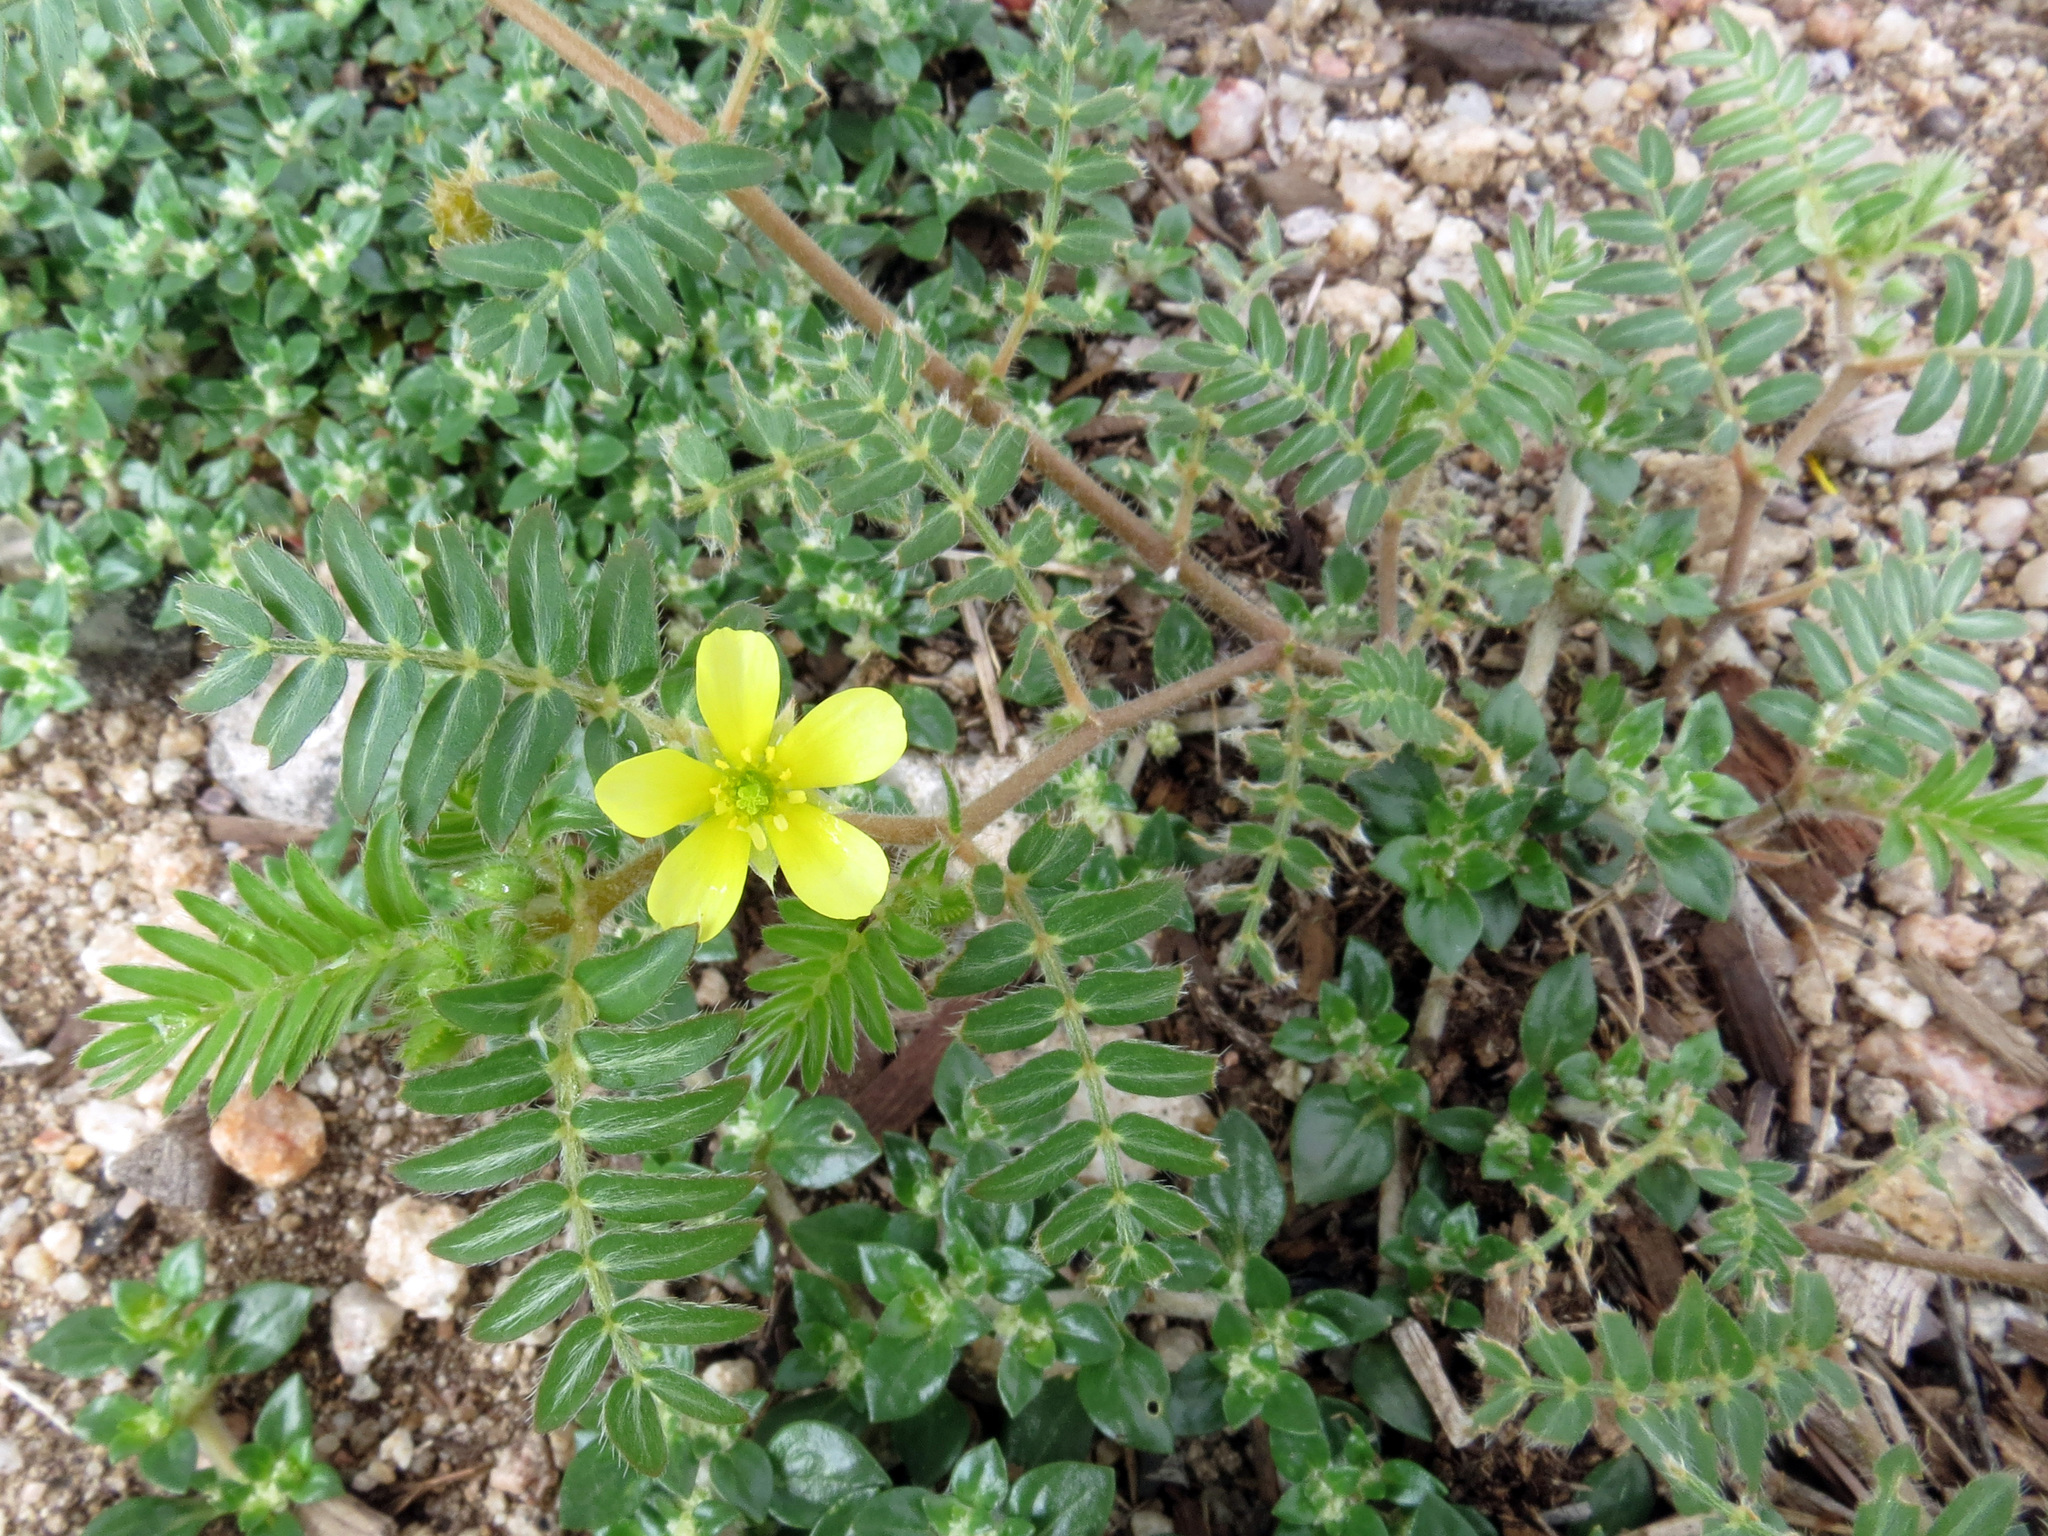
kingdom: Plantae
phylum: Tracheophyta
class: Magnoliopsida
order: Zygophyllales
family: Zygophyllaceae
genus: Tribulus
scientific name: Tribulus terrestris
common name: Puncturevine
